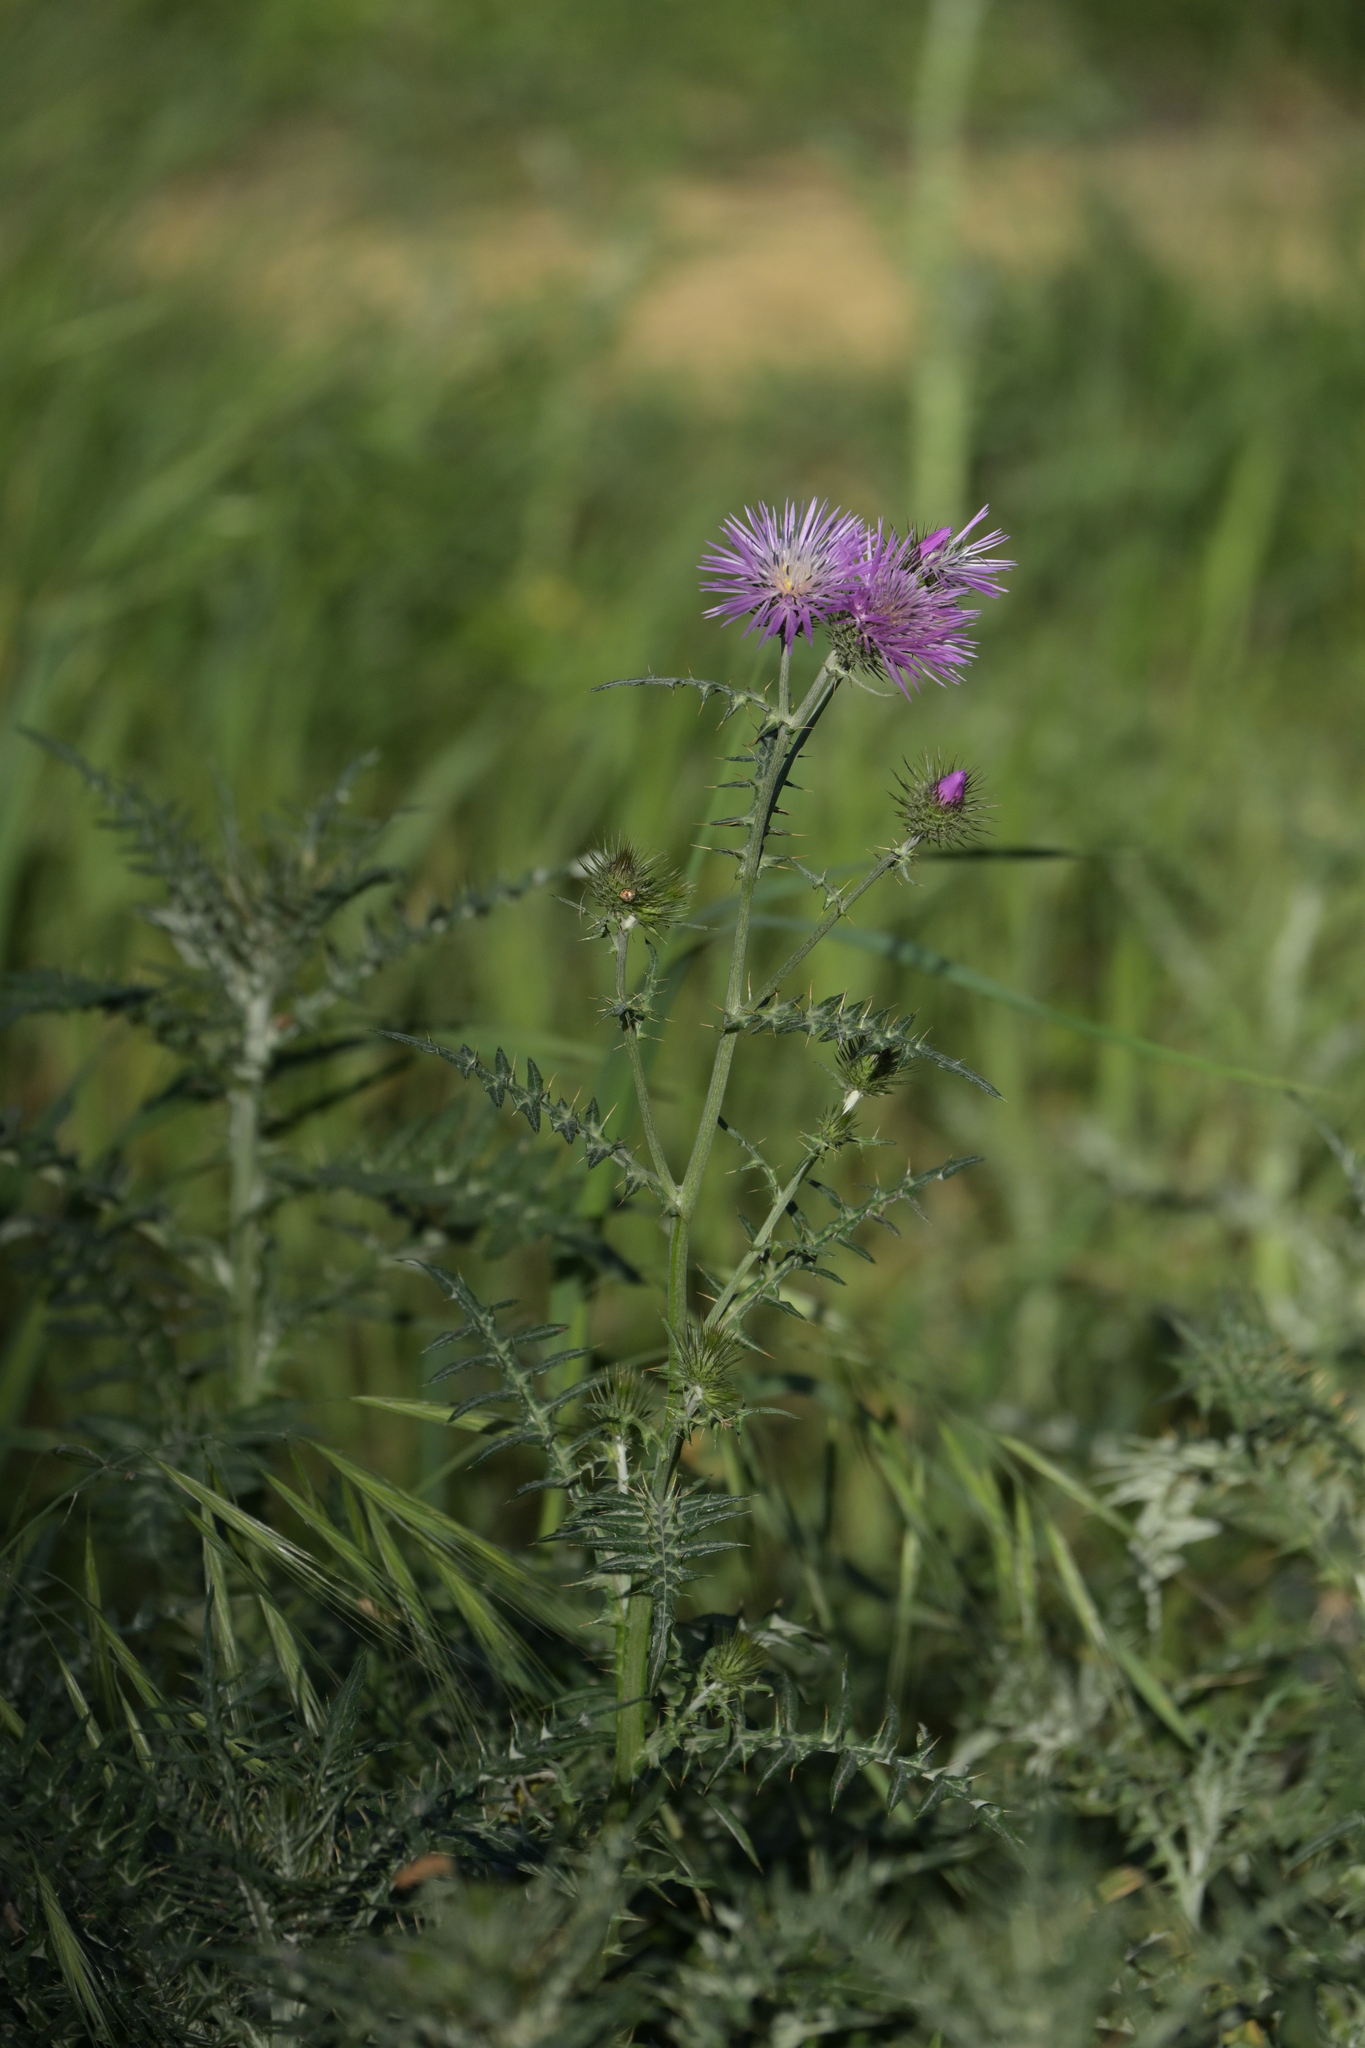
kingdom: Plantae
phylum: Tracheophyta
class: Magnoliopsida
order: Asterales
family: Asteraceae
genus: Galactites
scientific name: Galactites tomentosa
